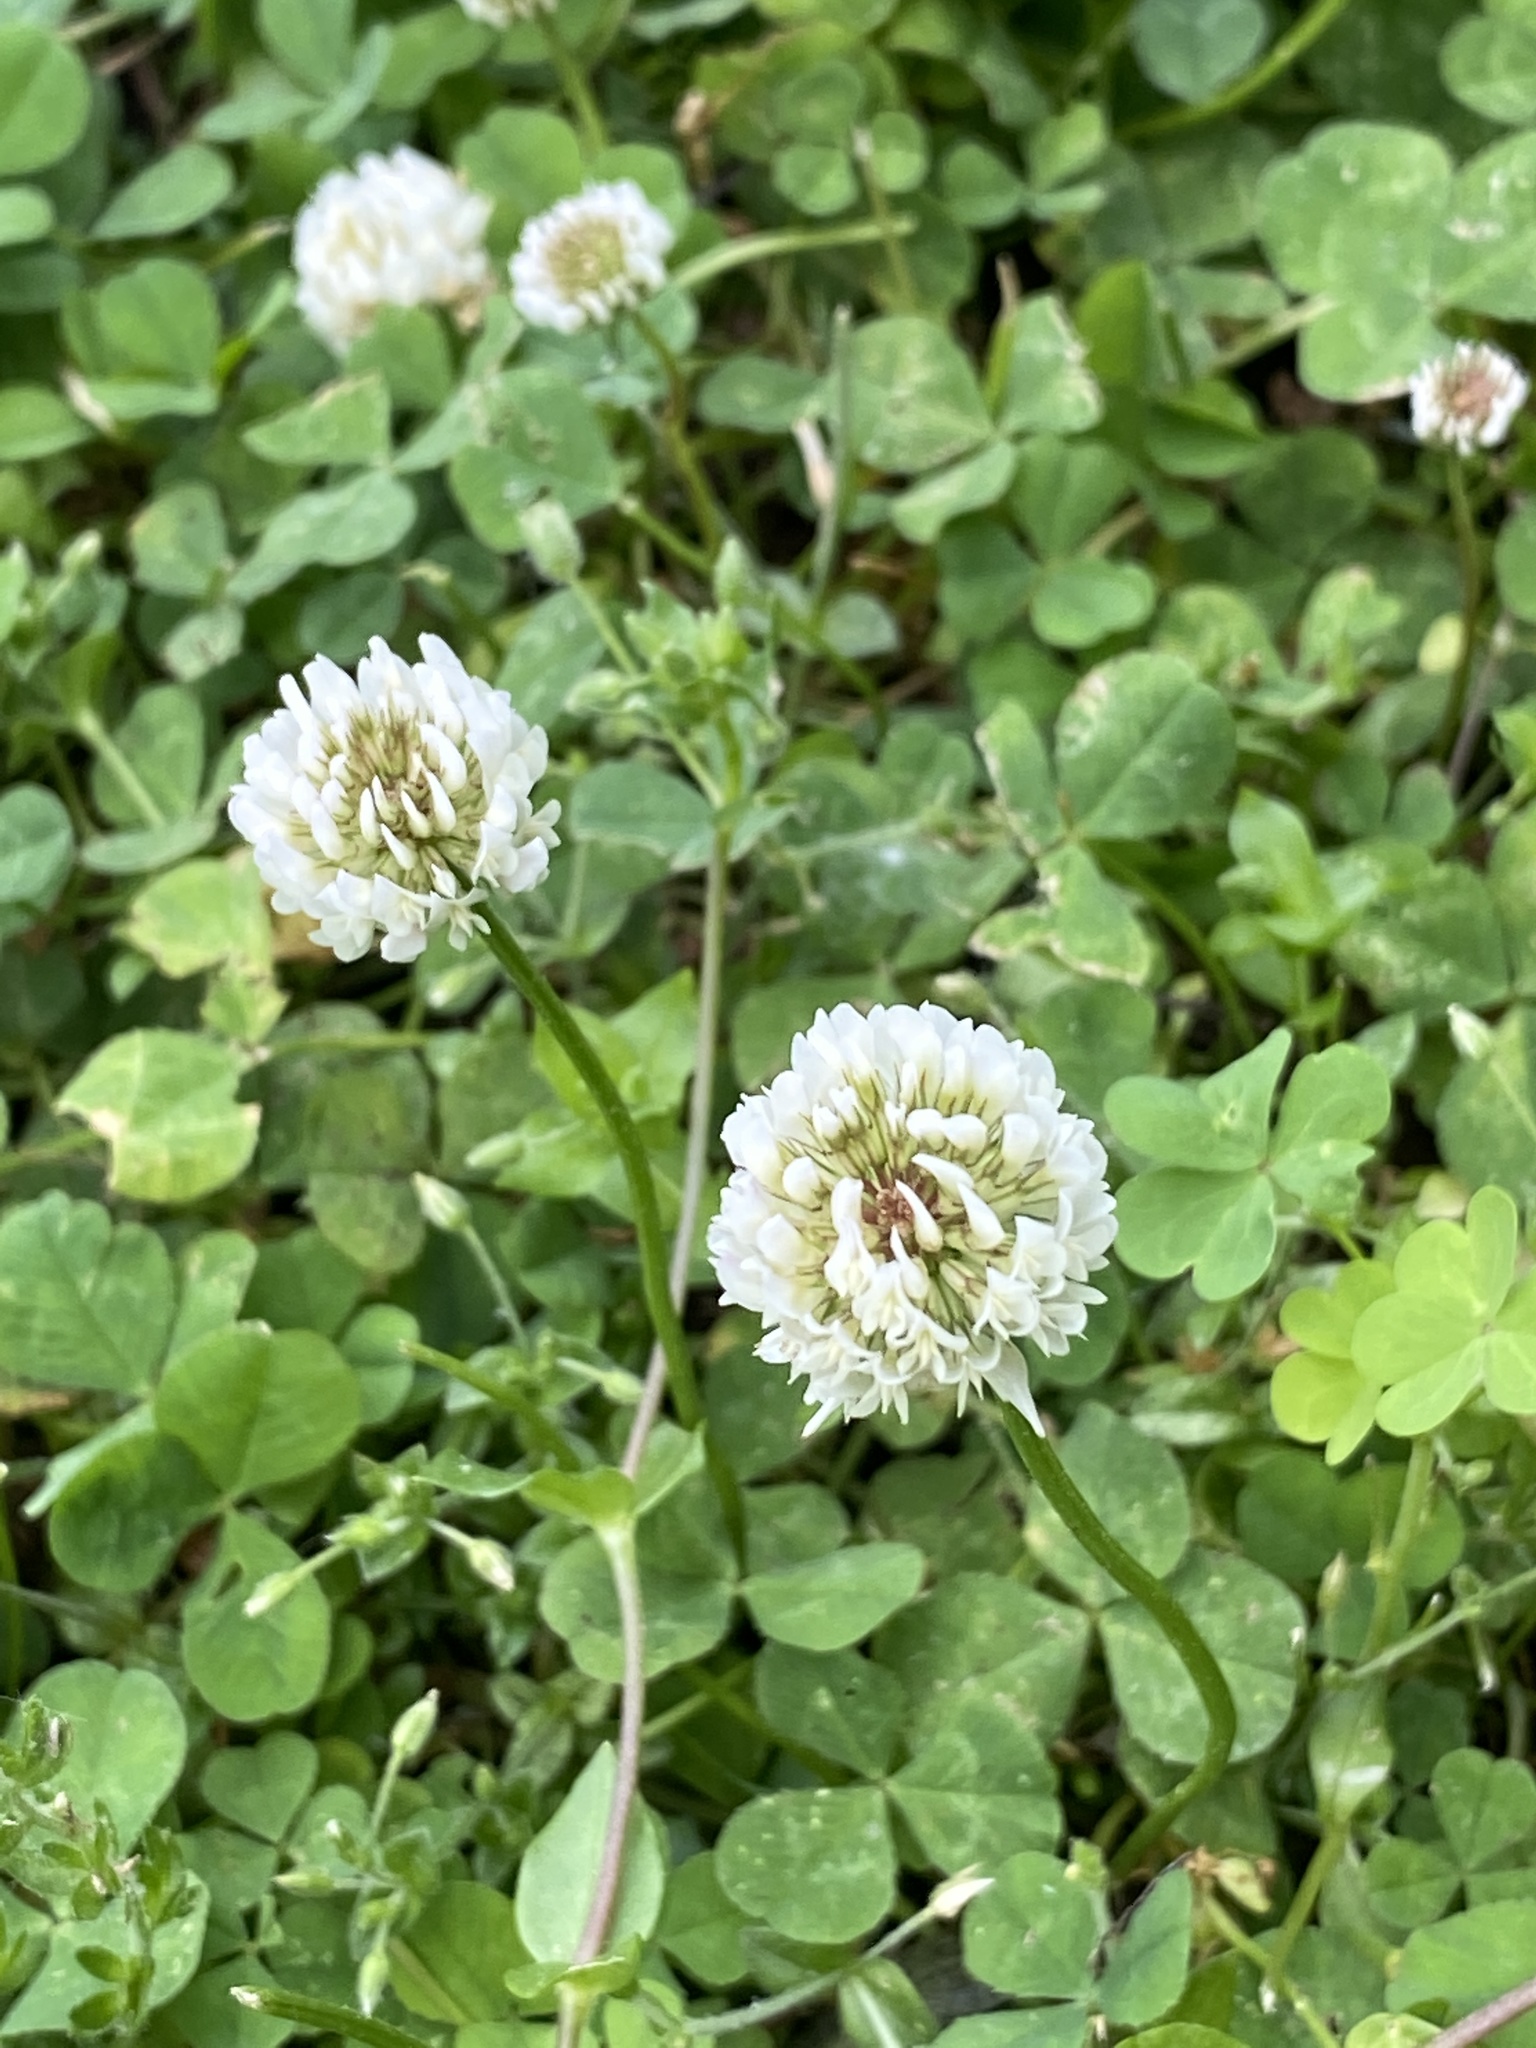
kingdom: Plantae
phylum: Tracheophyta
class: Magnoliopsida
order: Fabales
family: Fabaceae
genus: Trifolium
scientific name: Trifolium repens
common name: White clover
